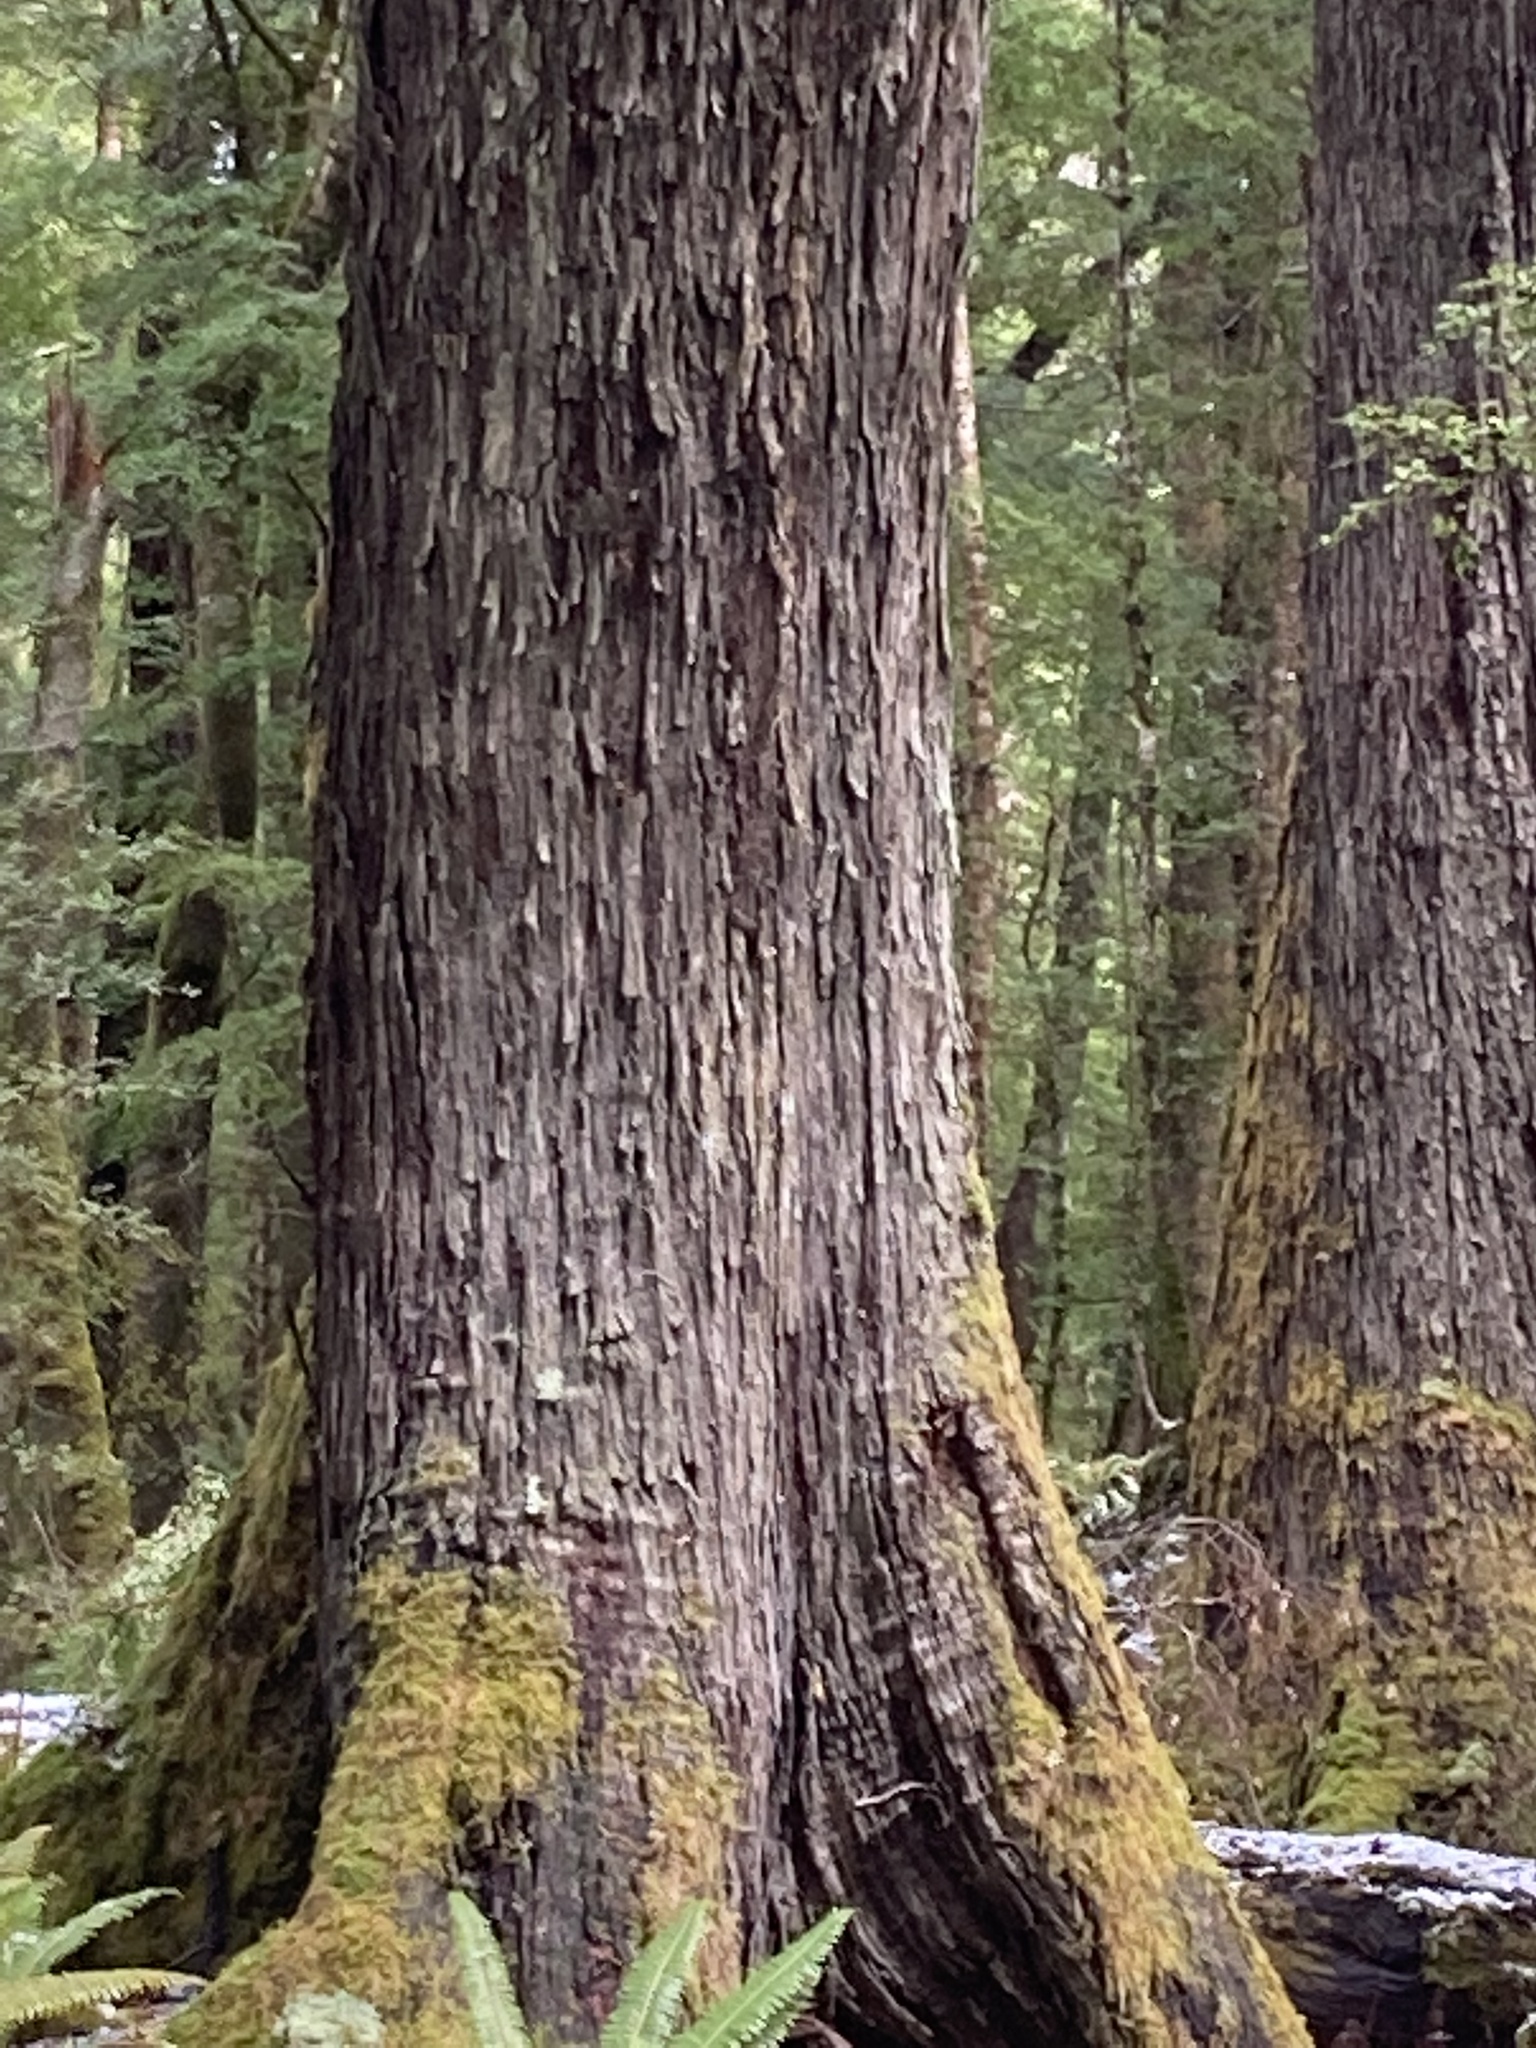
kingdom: Plantae
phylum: Tracheophyta
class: Magnoliopsida
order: Fagales
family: Nothofagaceae
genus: Nothofagus
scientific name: Nothofagus fusca
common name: Red beech
